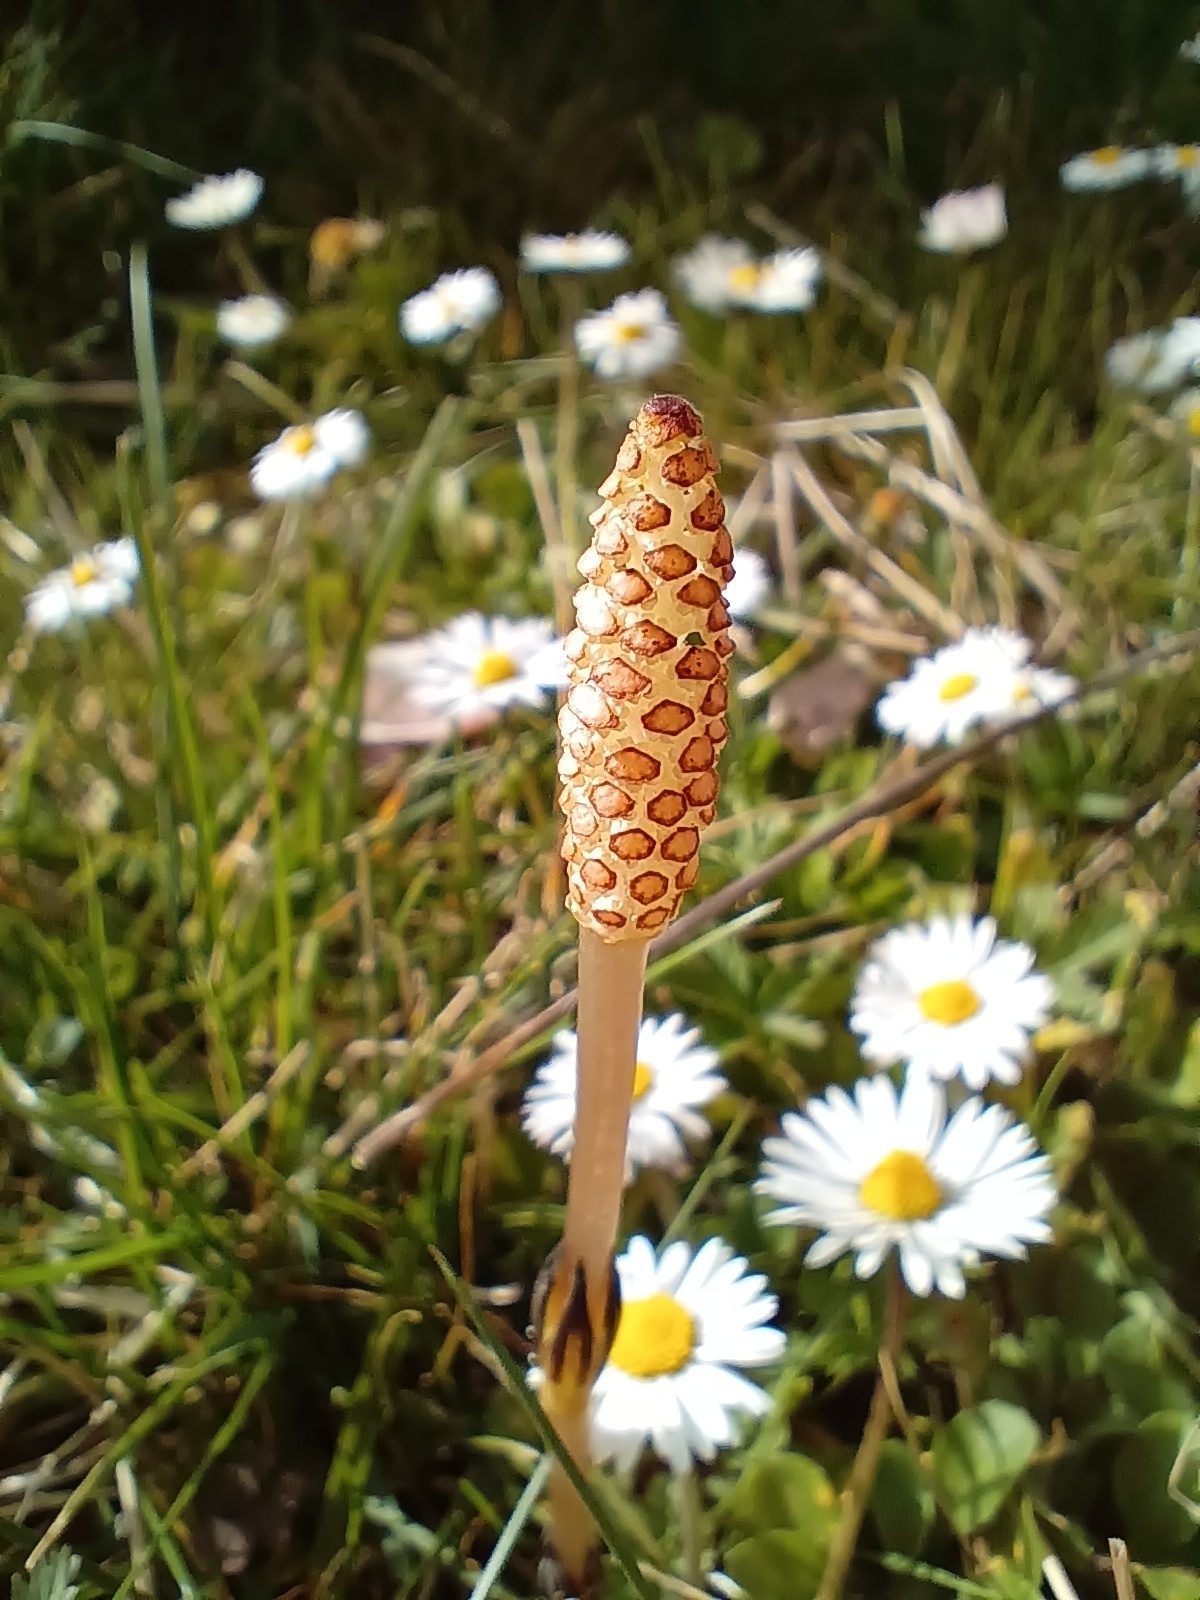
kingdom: Plantae
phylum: Tracheophyta
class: Polypodiopsida
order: Equisetales
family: Equisetaceae
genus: Equisetum
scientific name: Equisetum arvense
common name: Field horsetail
